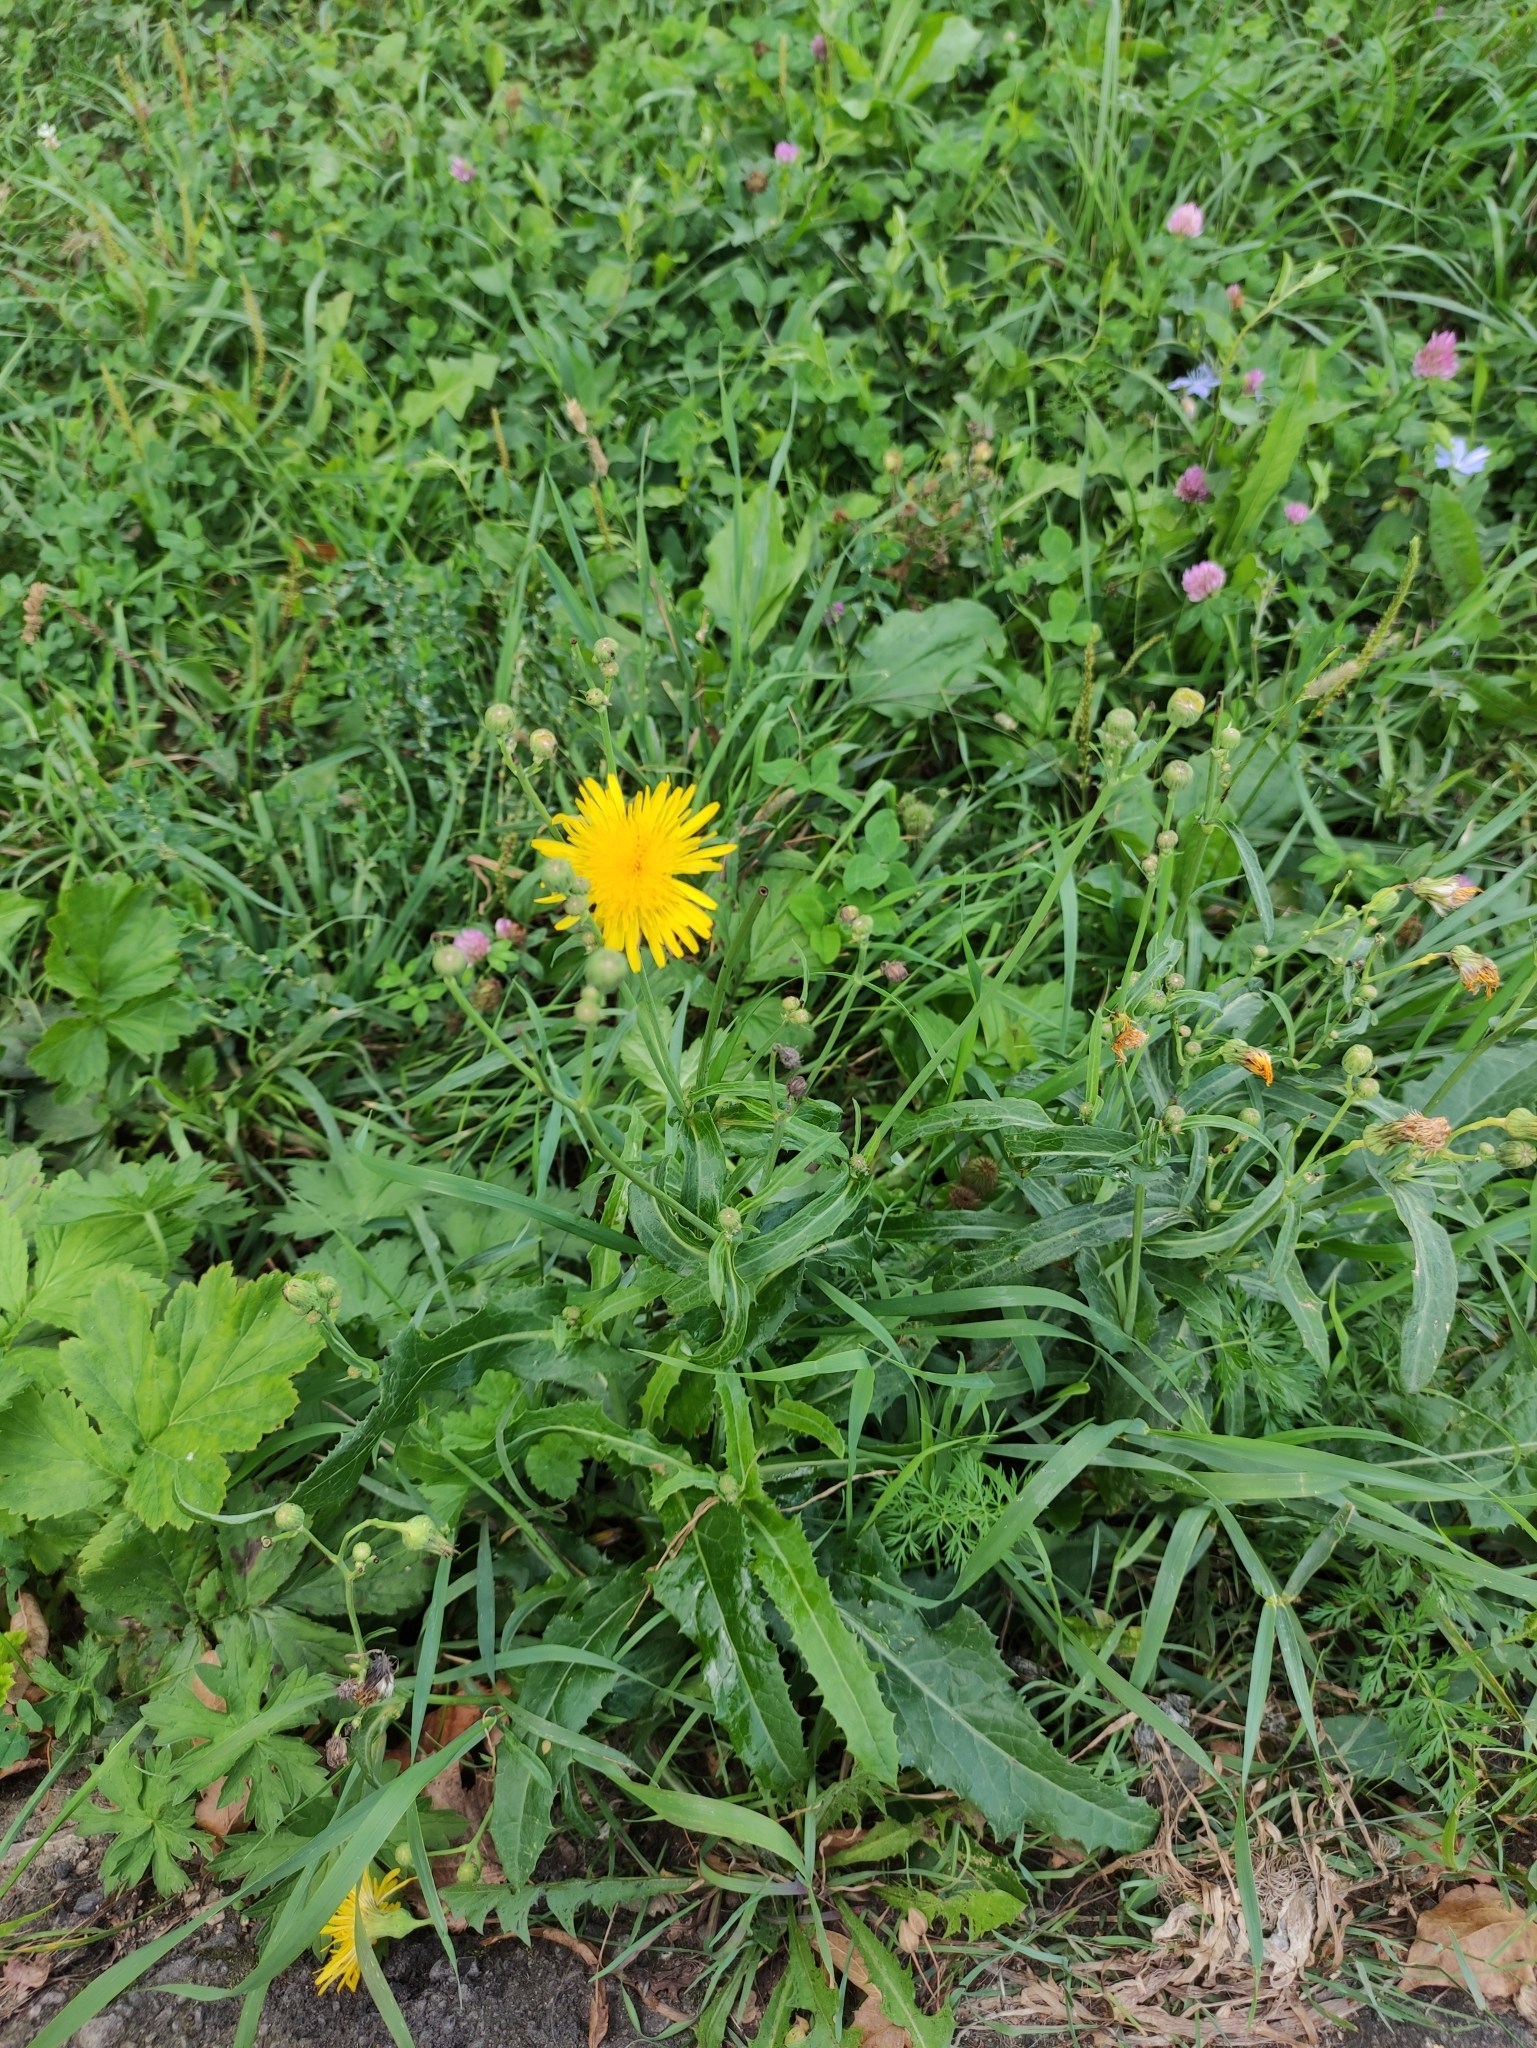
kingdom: Plantae
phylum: Tracheophyta
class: Magnoliopsida
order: Asterales
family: Asteraceae
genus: Sonchus
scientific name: Sonchus arvensis
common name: Perennial sow-thistle
